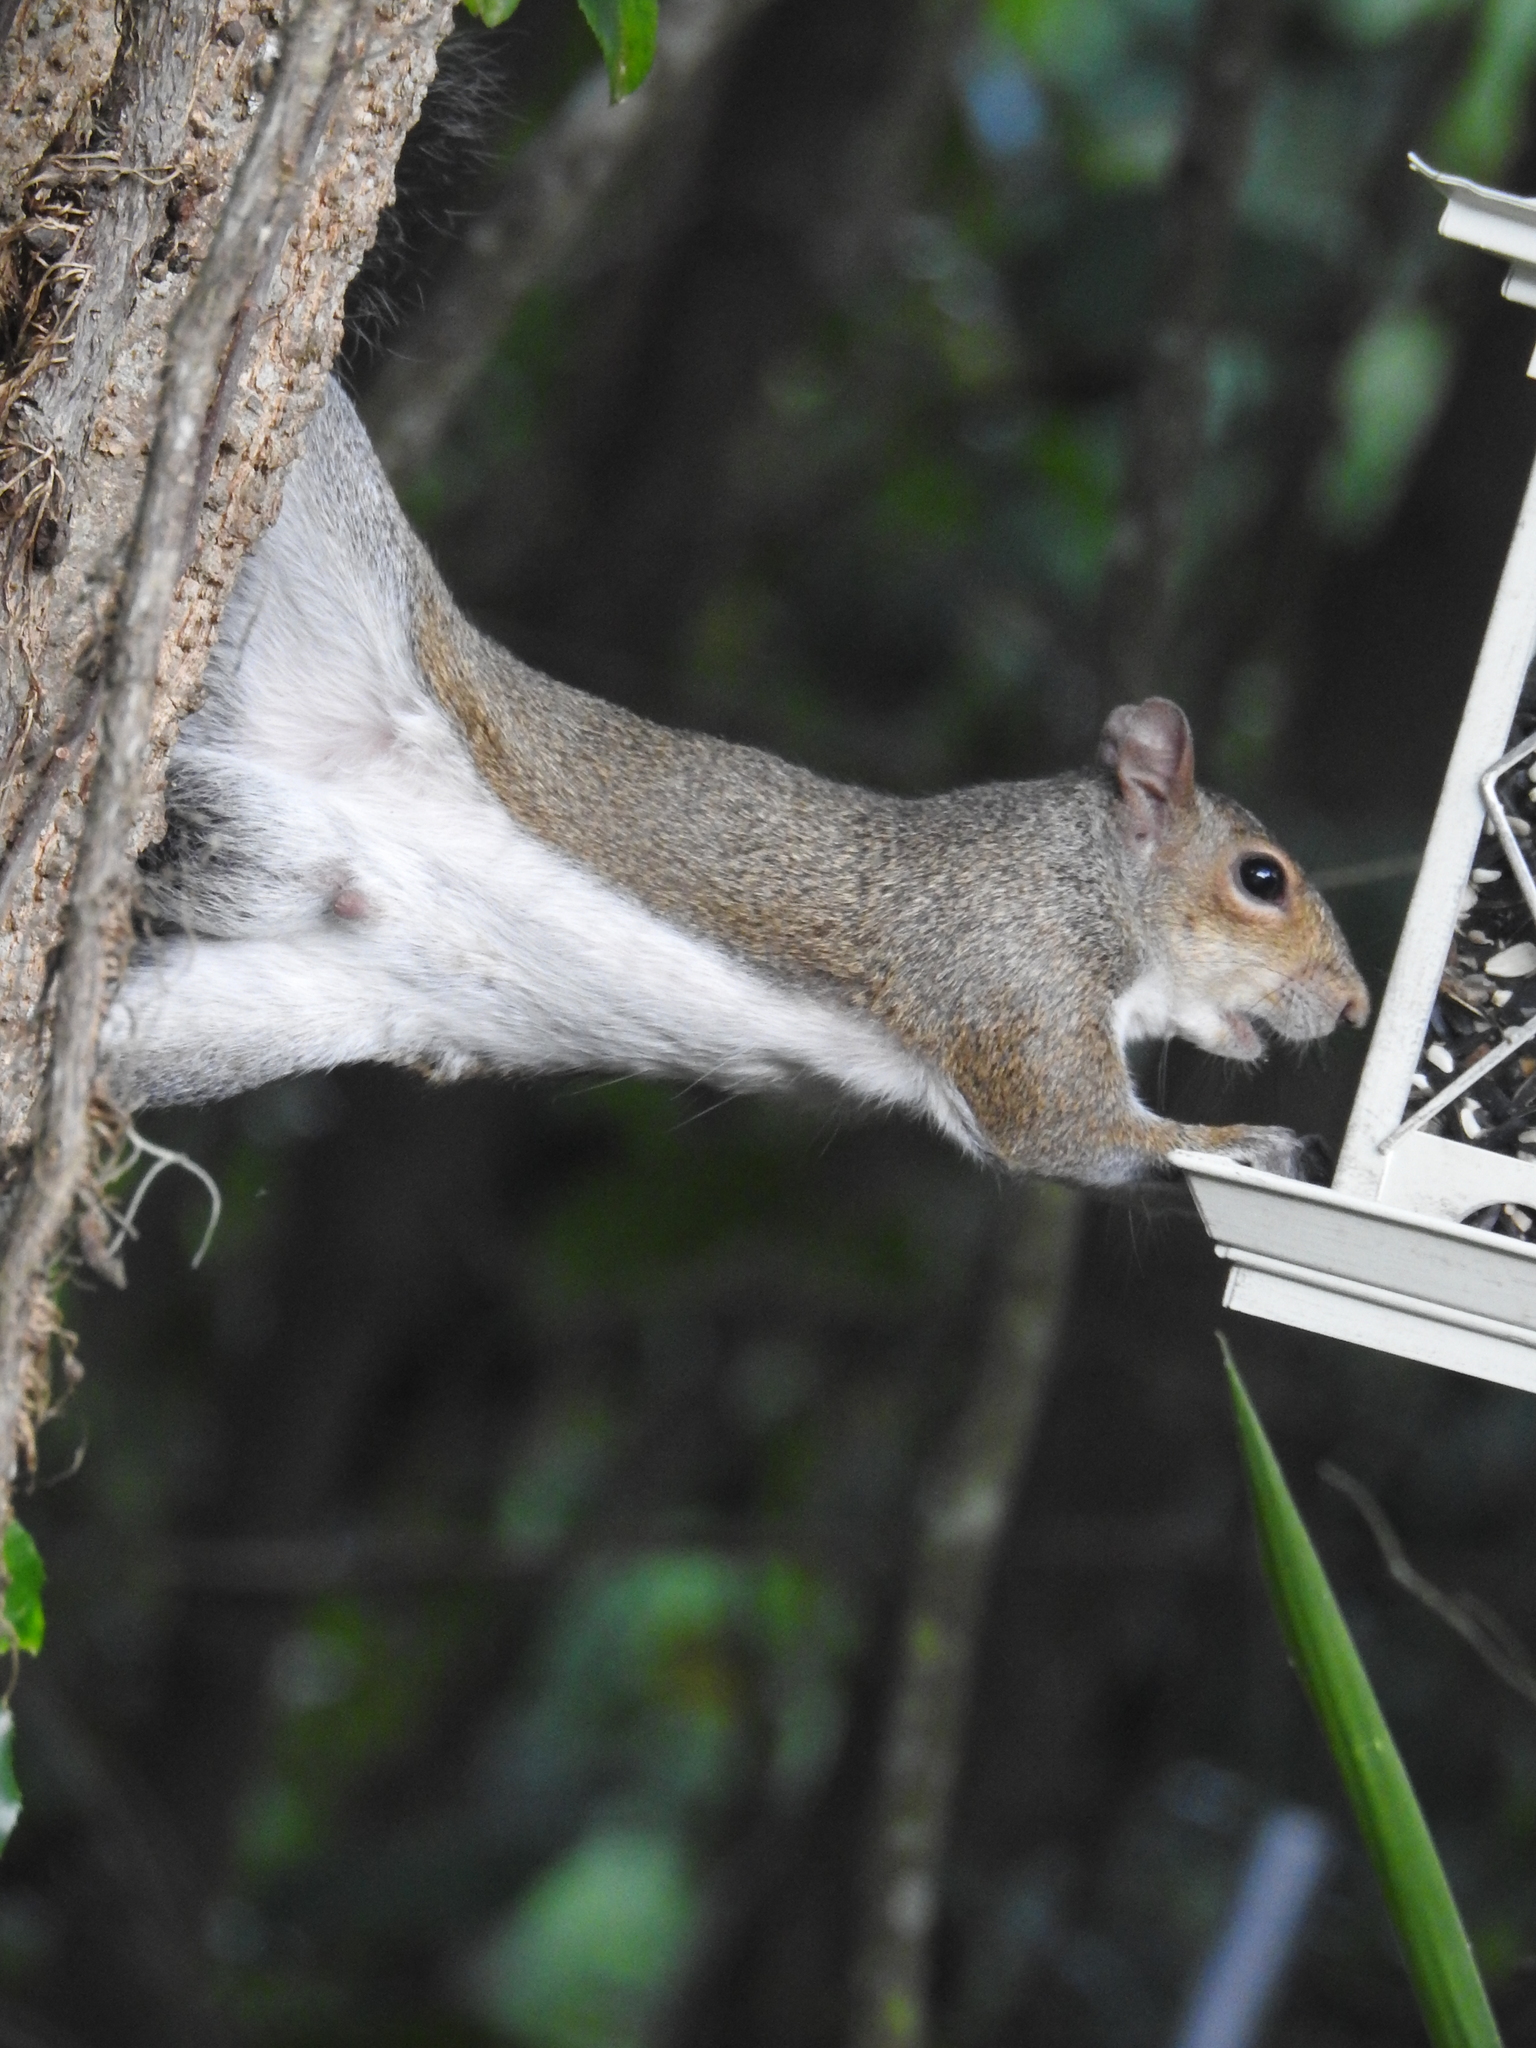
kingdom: Animalia
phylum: Chordata
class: Mammalia
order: Rodentia
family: Sciuridae
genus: Sciurus
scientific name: Sciurus carolinensis
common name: Eastern gray squirrel
